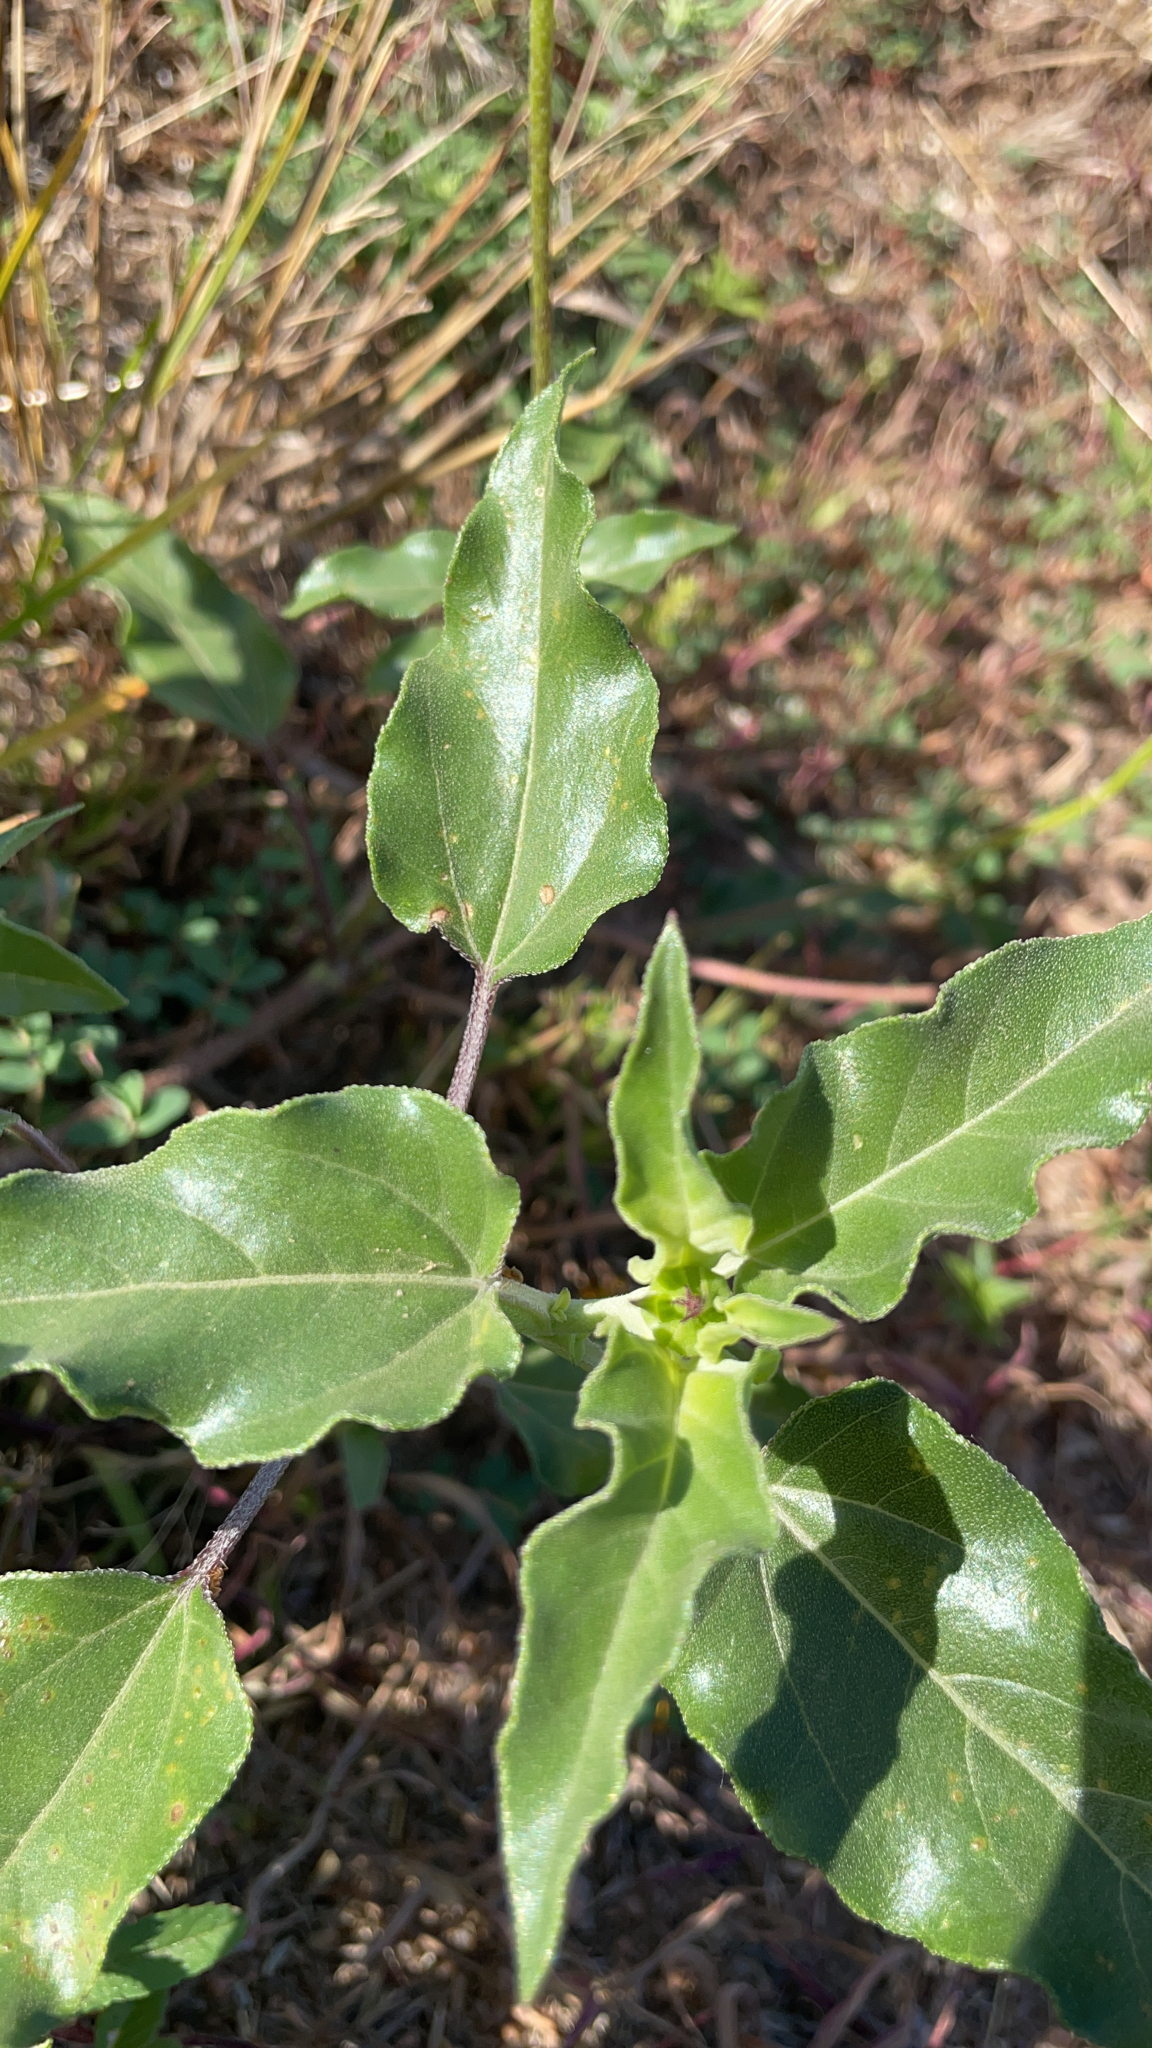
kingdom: Plantae
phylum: Tracheophyta
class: Magnoliopsida
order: Asterales
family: Asteraceae
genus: Helianthus
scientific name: Helianthus petiolaris
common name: Lesser sunflower
